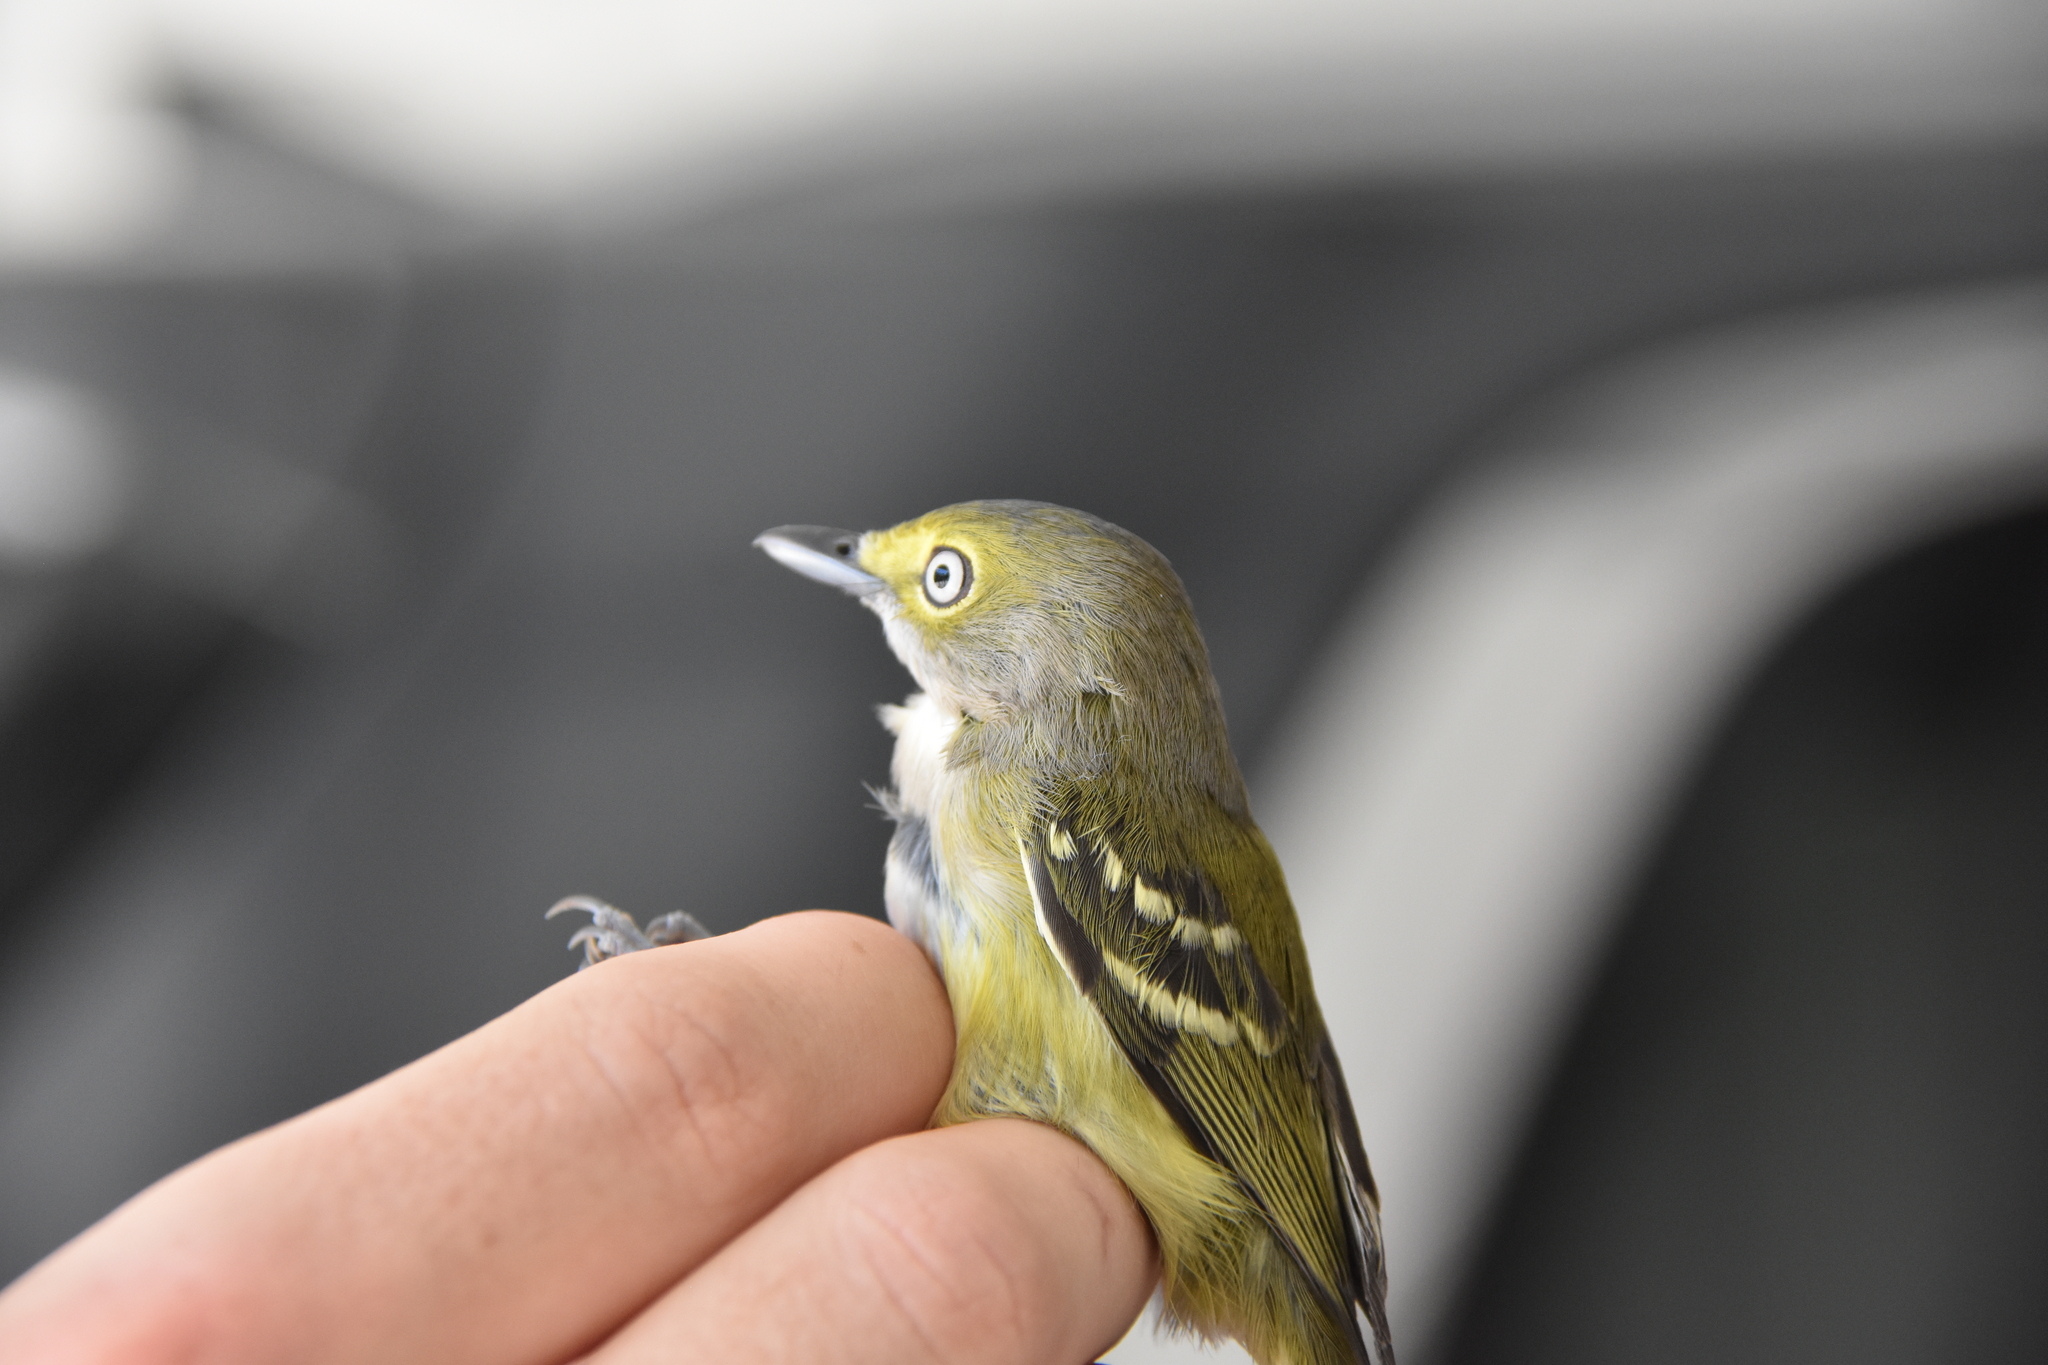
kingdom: Animalia
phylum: Chordata
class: Aves
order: Passeriformes
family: Vireonidae
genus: Vireo
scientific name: Vireo griseus
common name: White-eyed vireo
